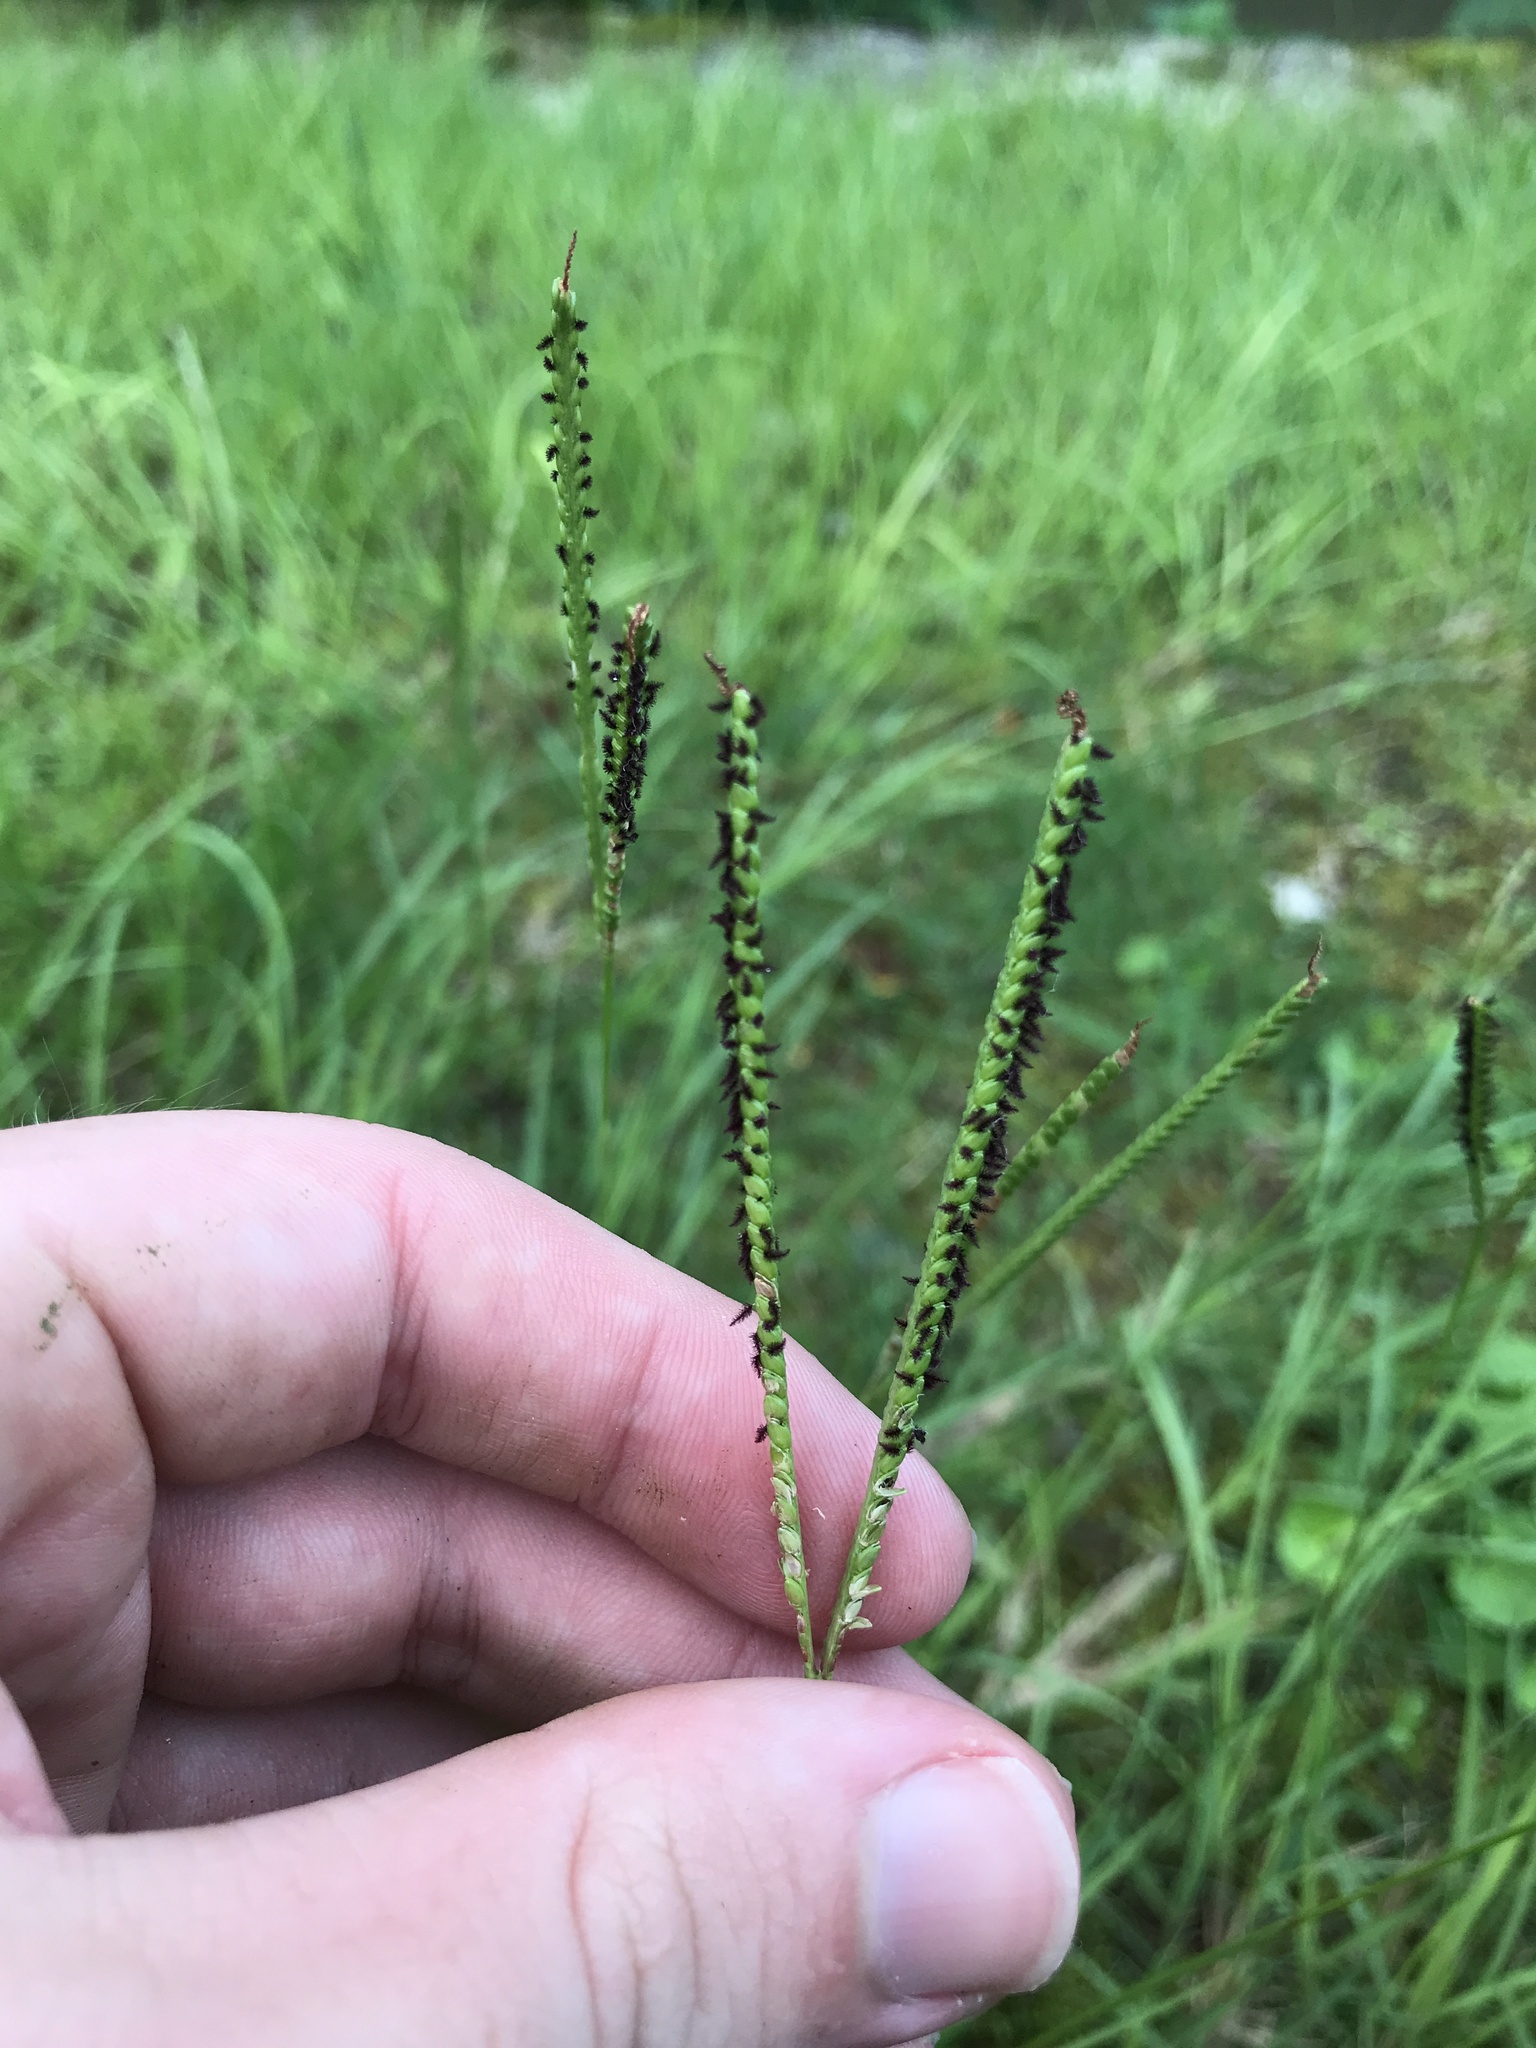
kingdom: Plantae
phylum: Tracheophyta
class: Liliopsida
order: Poales
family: Poaceae
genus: Paspalum
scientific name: Paspalum notatum
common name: Bahiagrass
